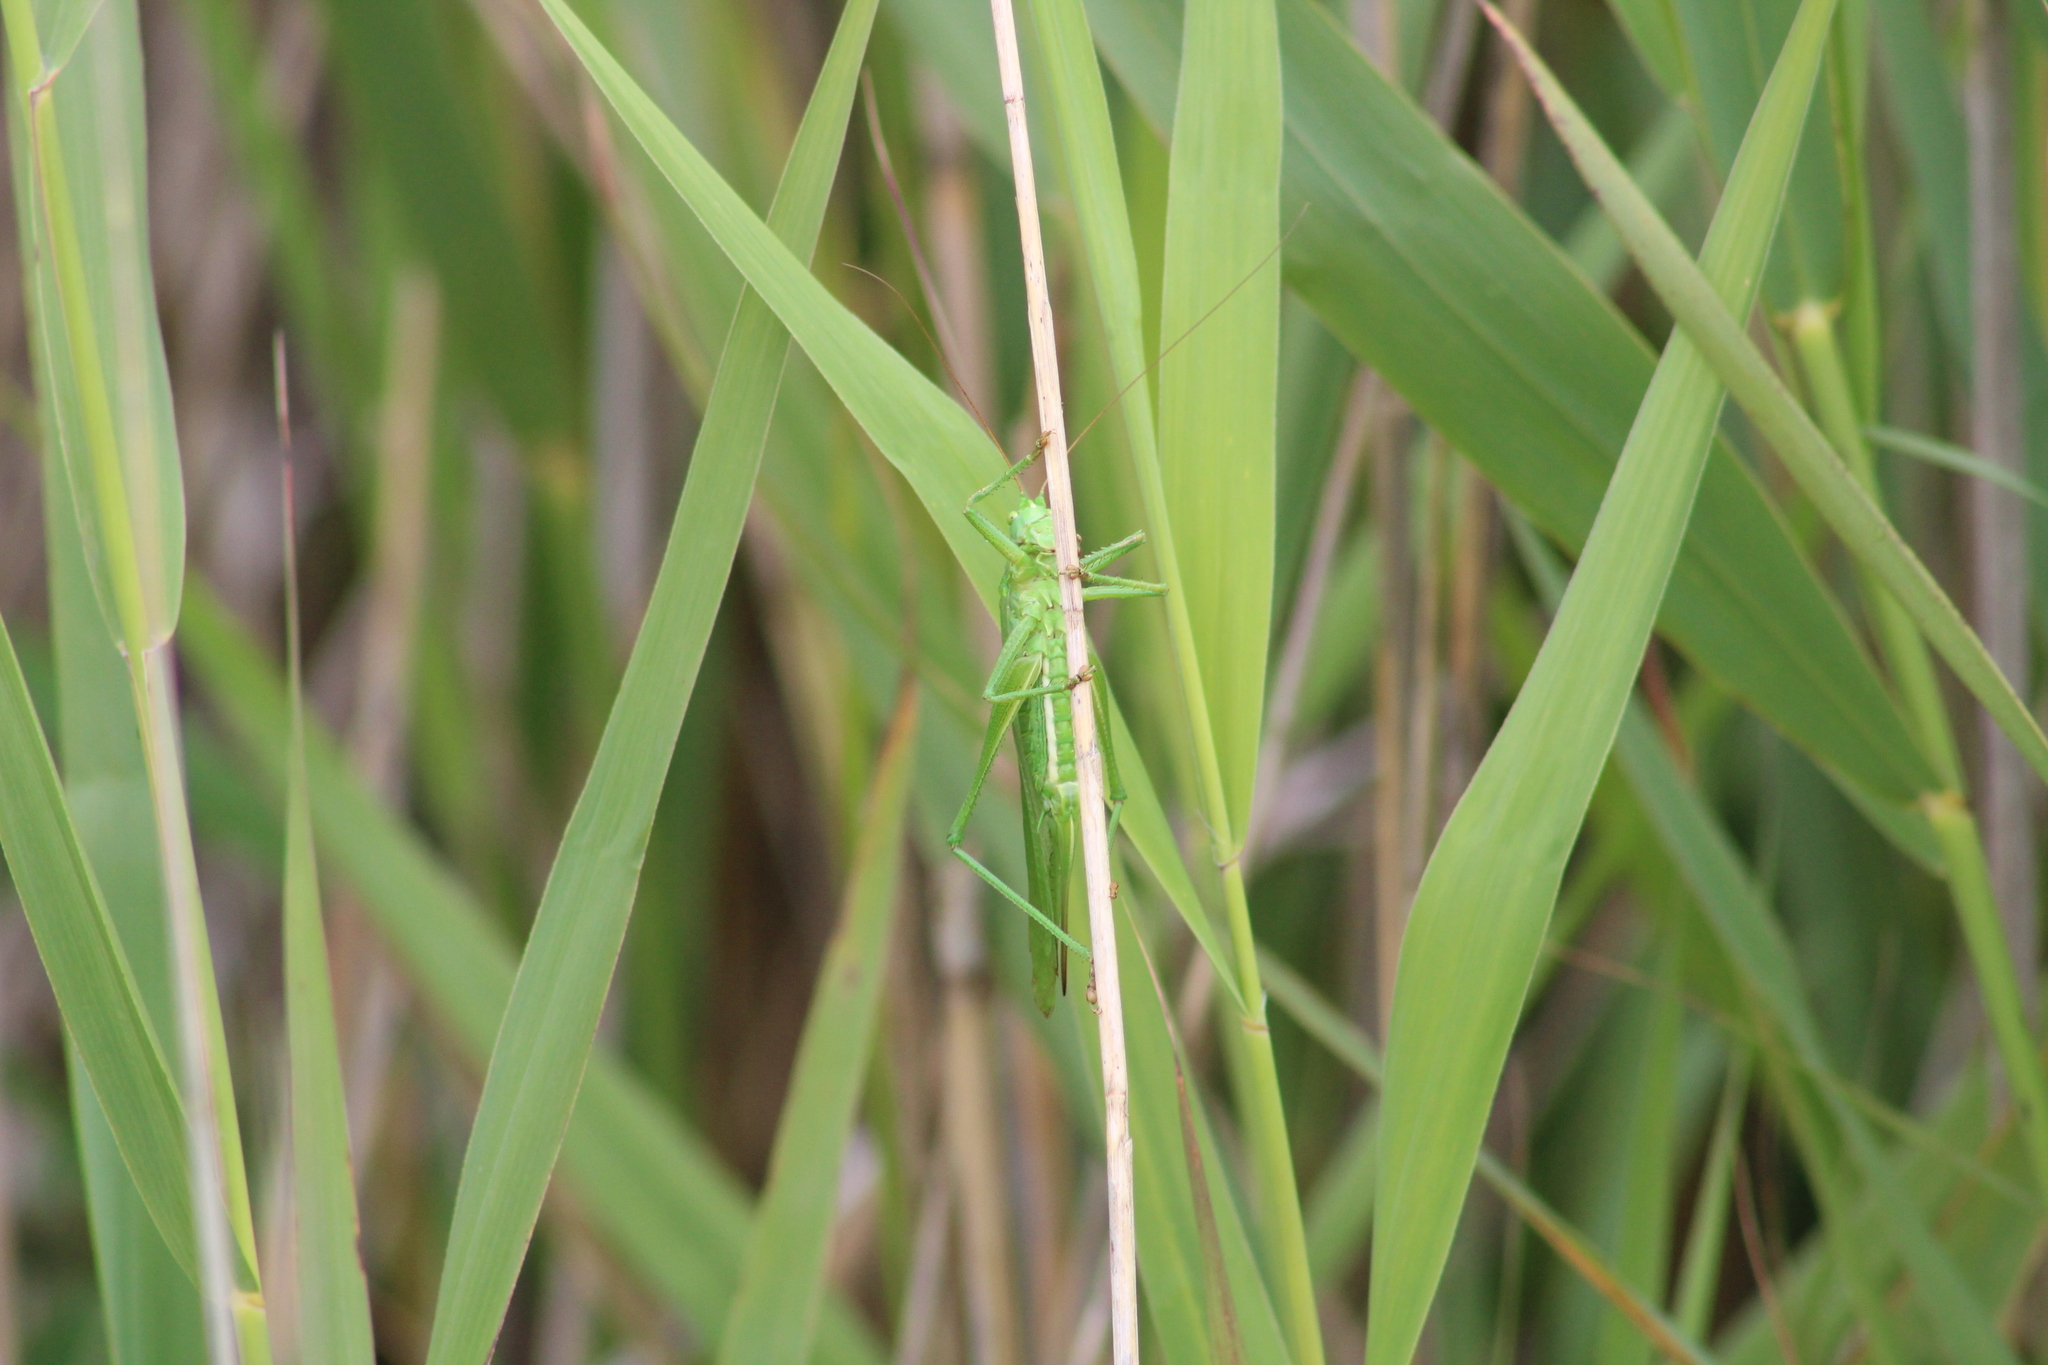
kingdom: Animalia
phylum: Arthropoda
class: Insecta
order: Orthoptera
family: Tettigoniidae
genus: Tettigonia
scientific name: Tettigonia viridissima
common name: Great green bush-cricket
